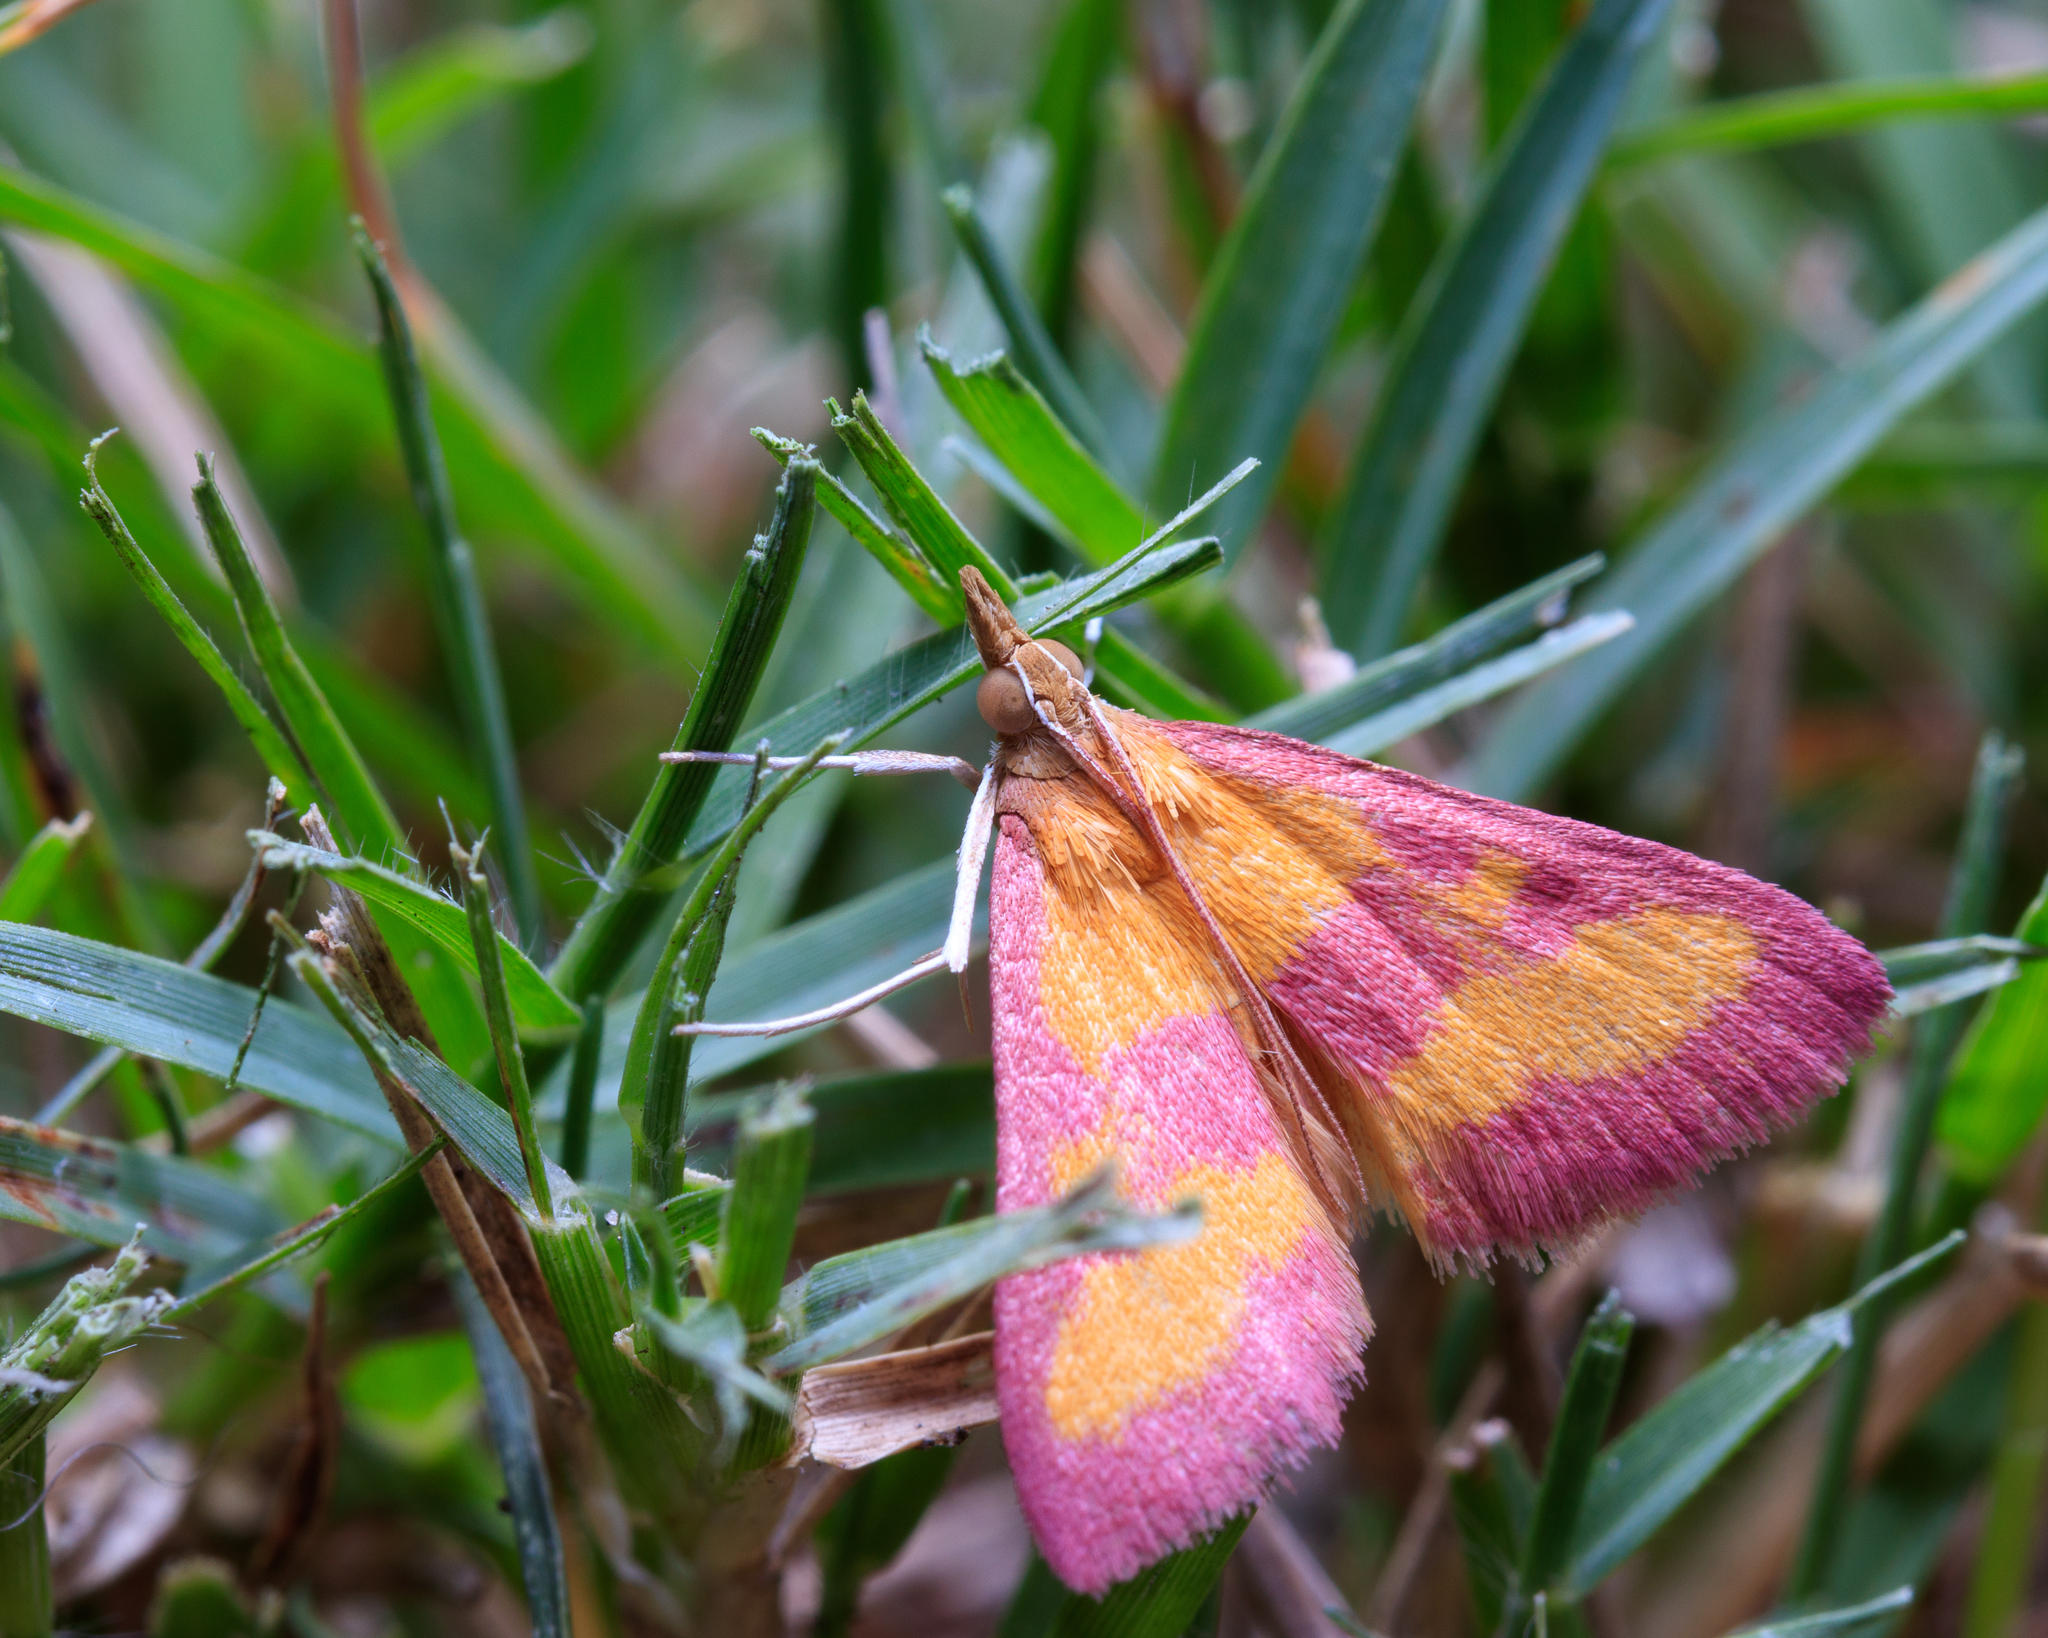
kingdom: Animalia
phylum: Arthropoda
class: Insecta
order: Lepidoptera
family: Crambidae
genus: Pyrausta
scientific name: Pyrausta laticlavia
